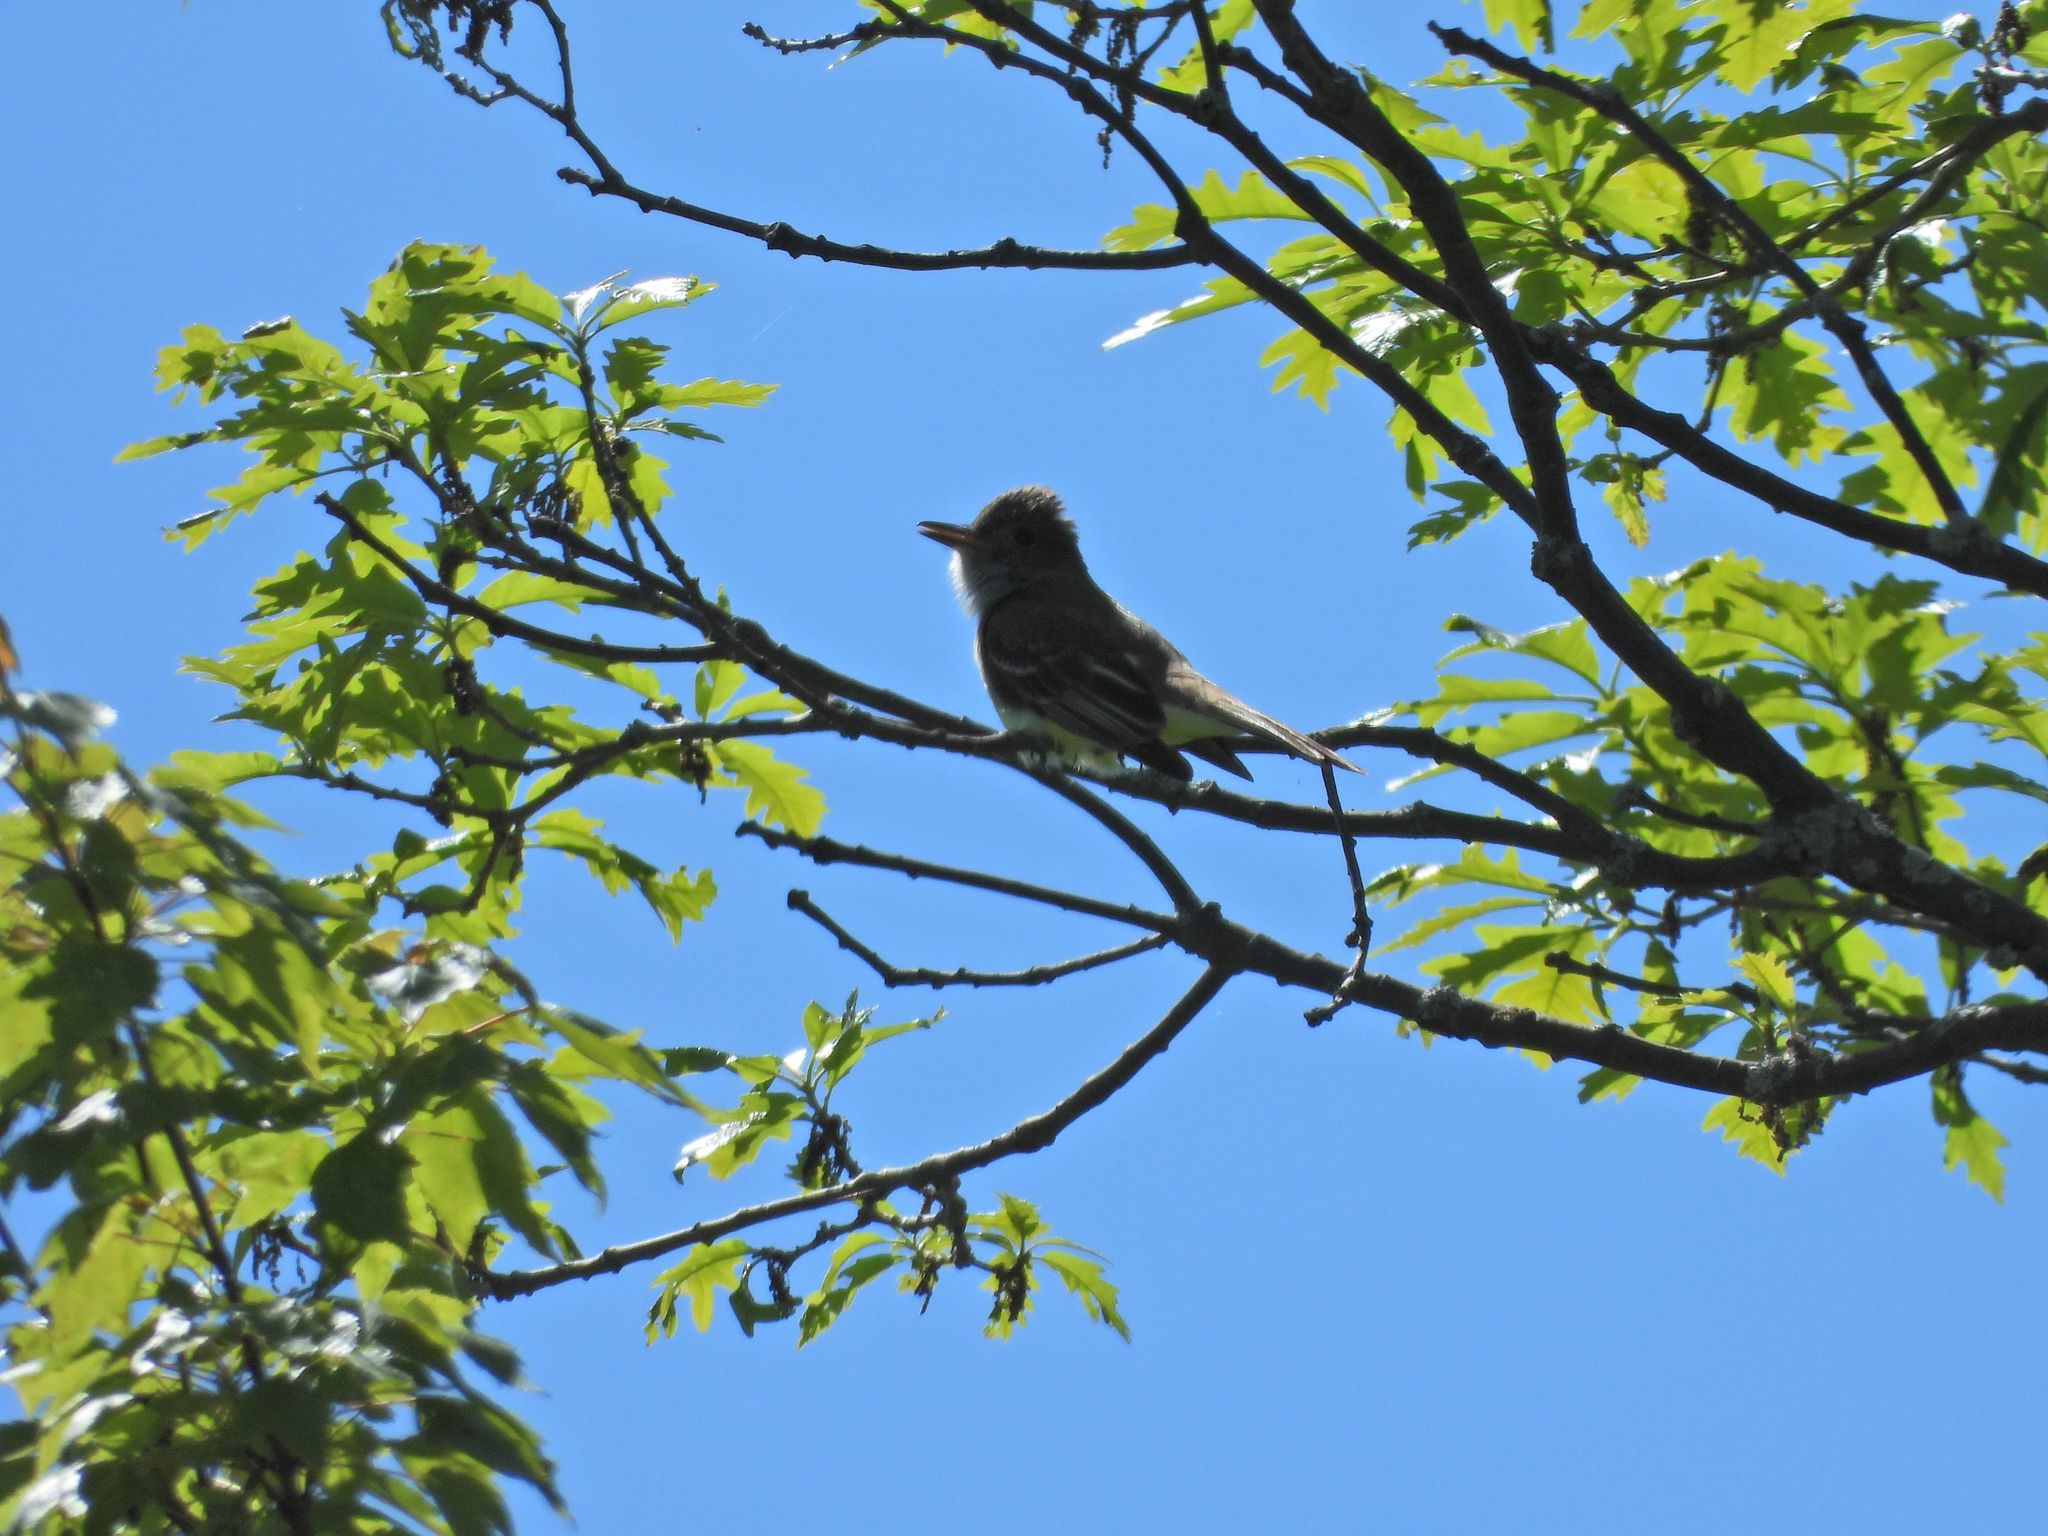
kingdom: Animalia
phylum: Chordata
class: Aves
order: Passeriformes
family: Tyrannidae
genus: Myiarchus
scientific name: Myiarchus crinitus
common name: Great crested flycatcher
